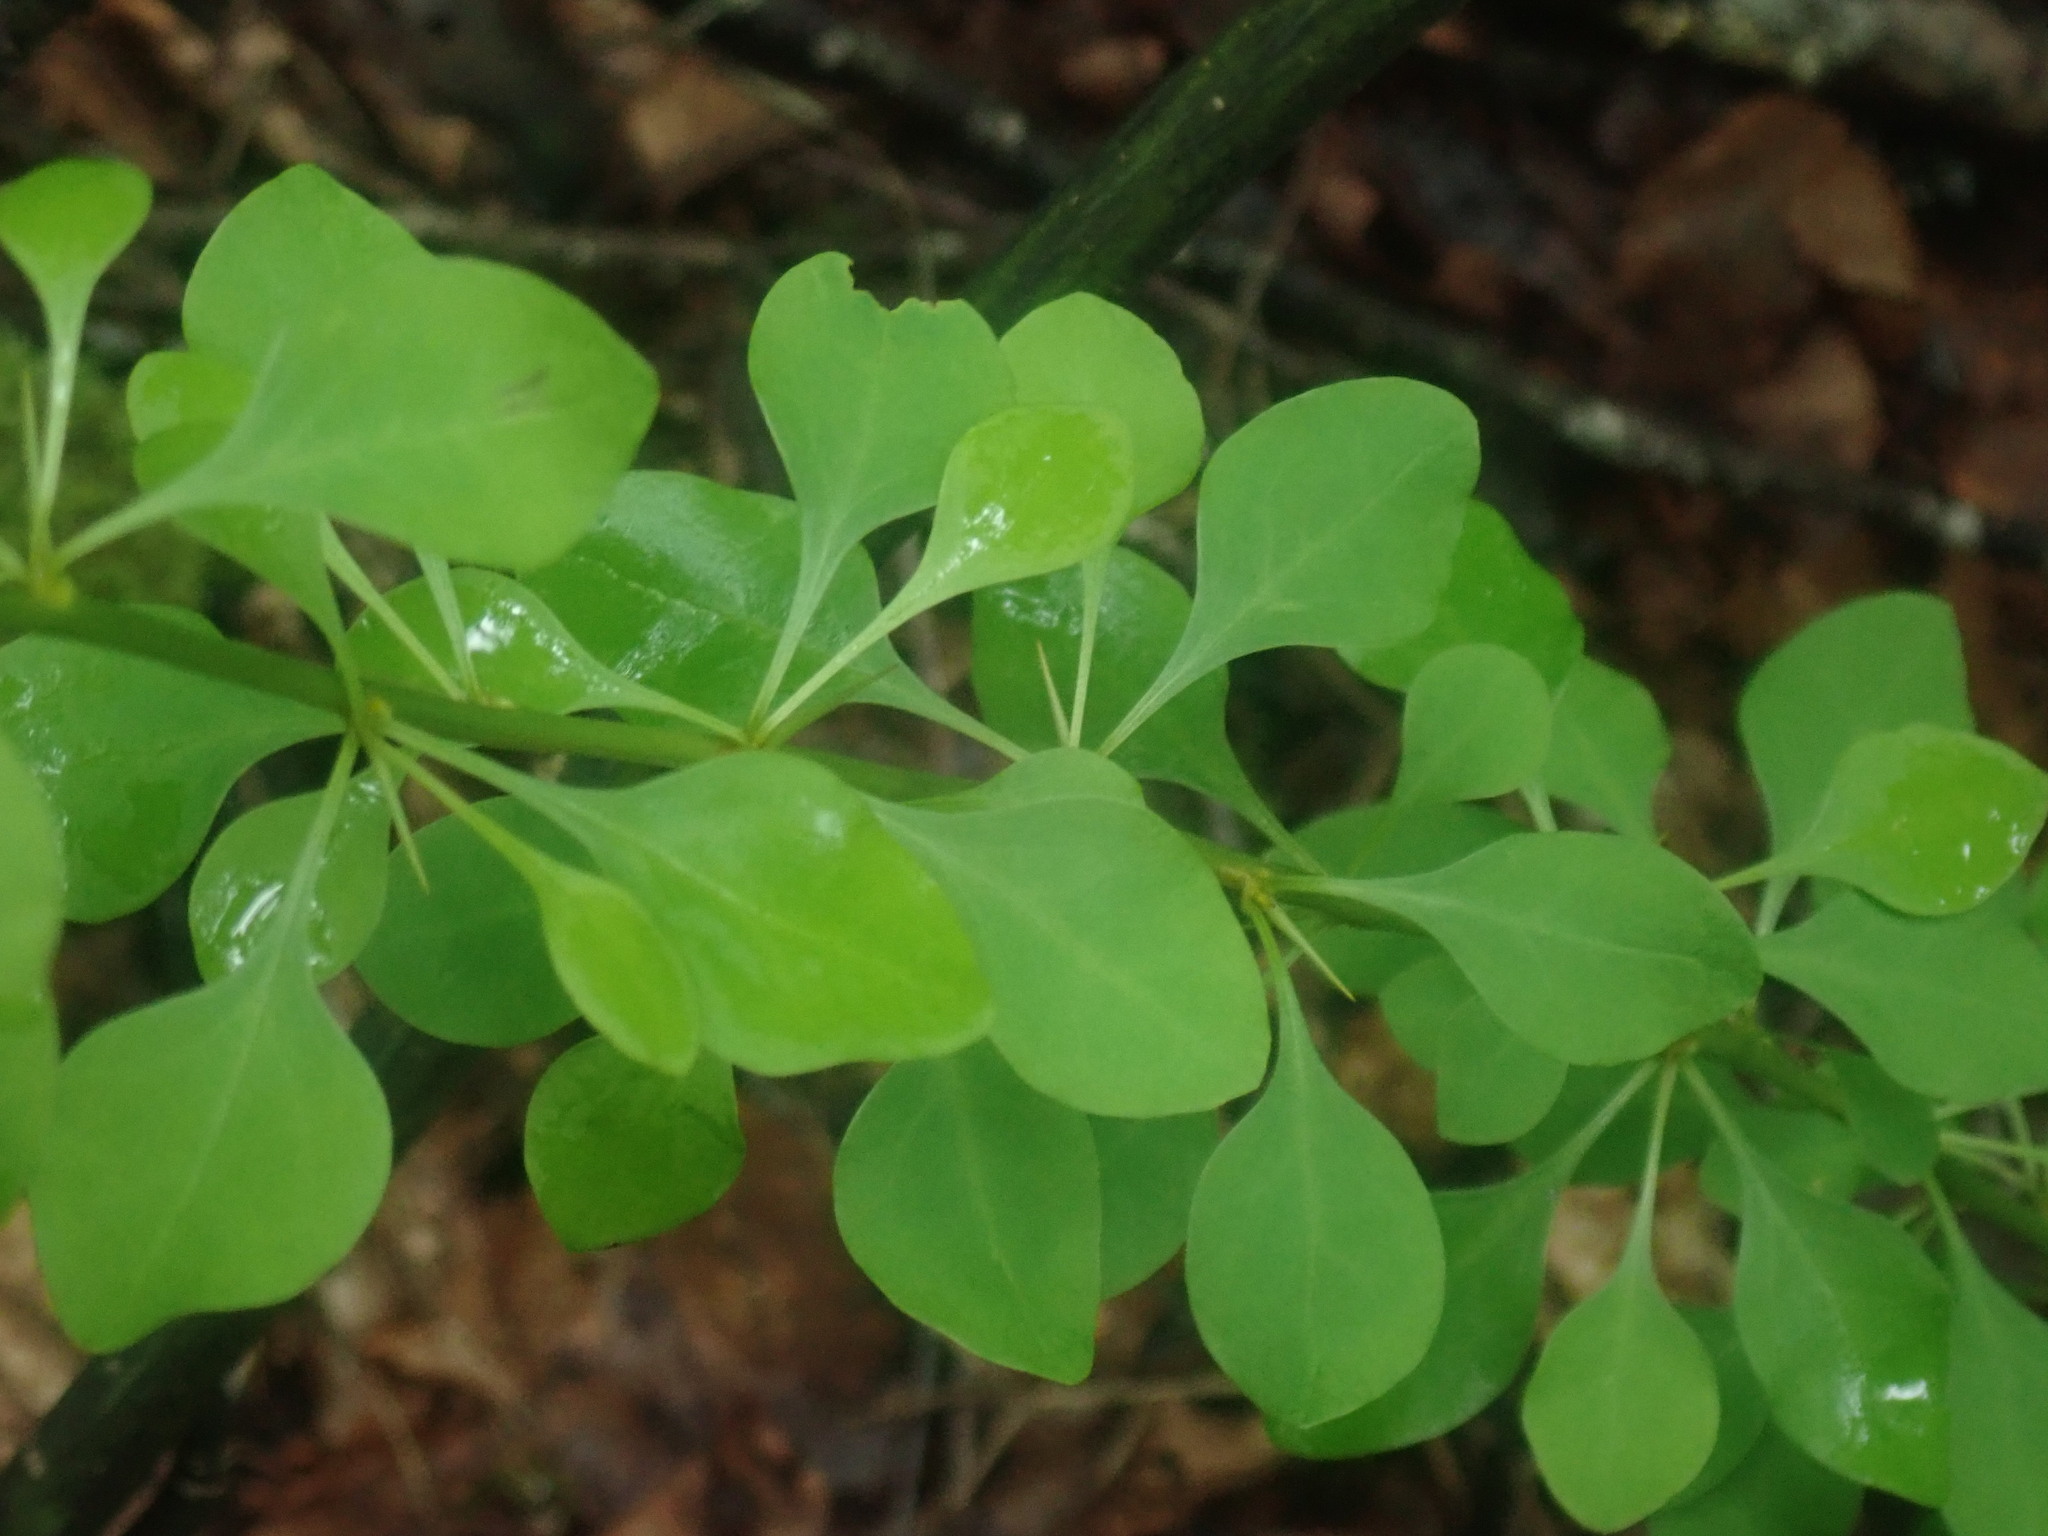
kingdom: Plantae
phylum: Tracheophyta
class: Magnoliopsida
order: Ranunculales
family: Berberidaceae
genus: Berberis
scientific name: Berberis thunbergii
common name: Japanese barberry
